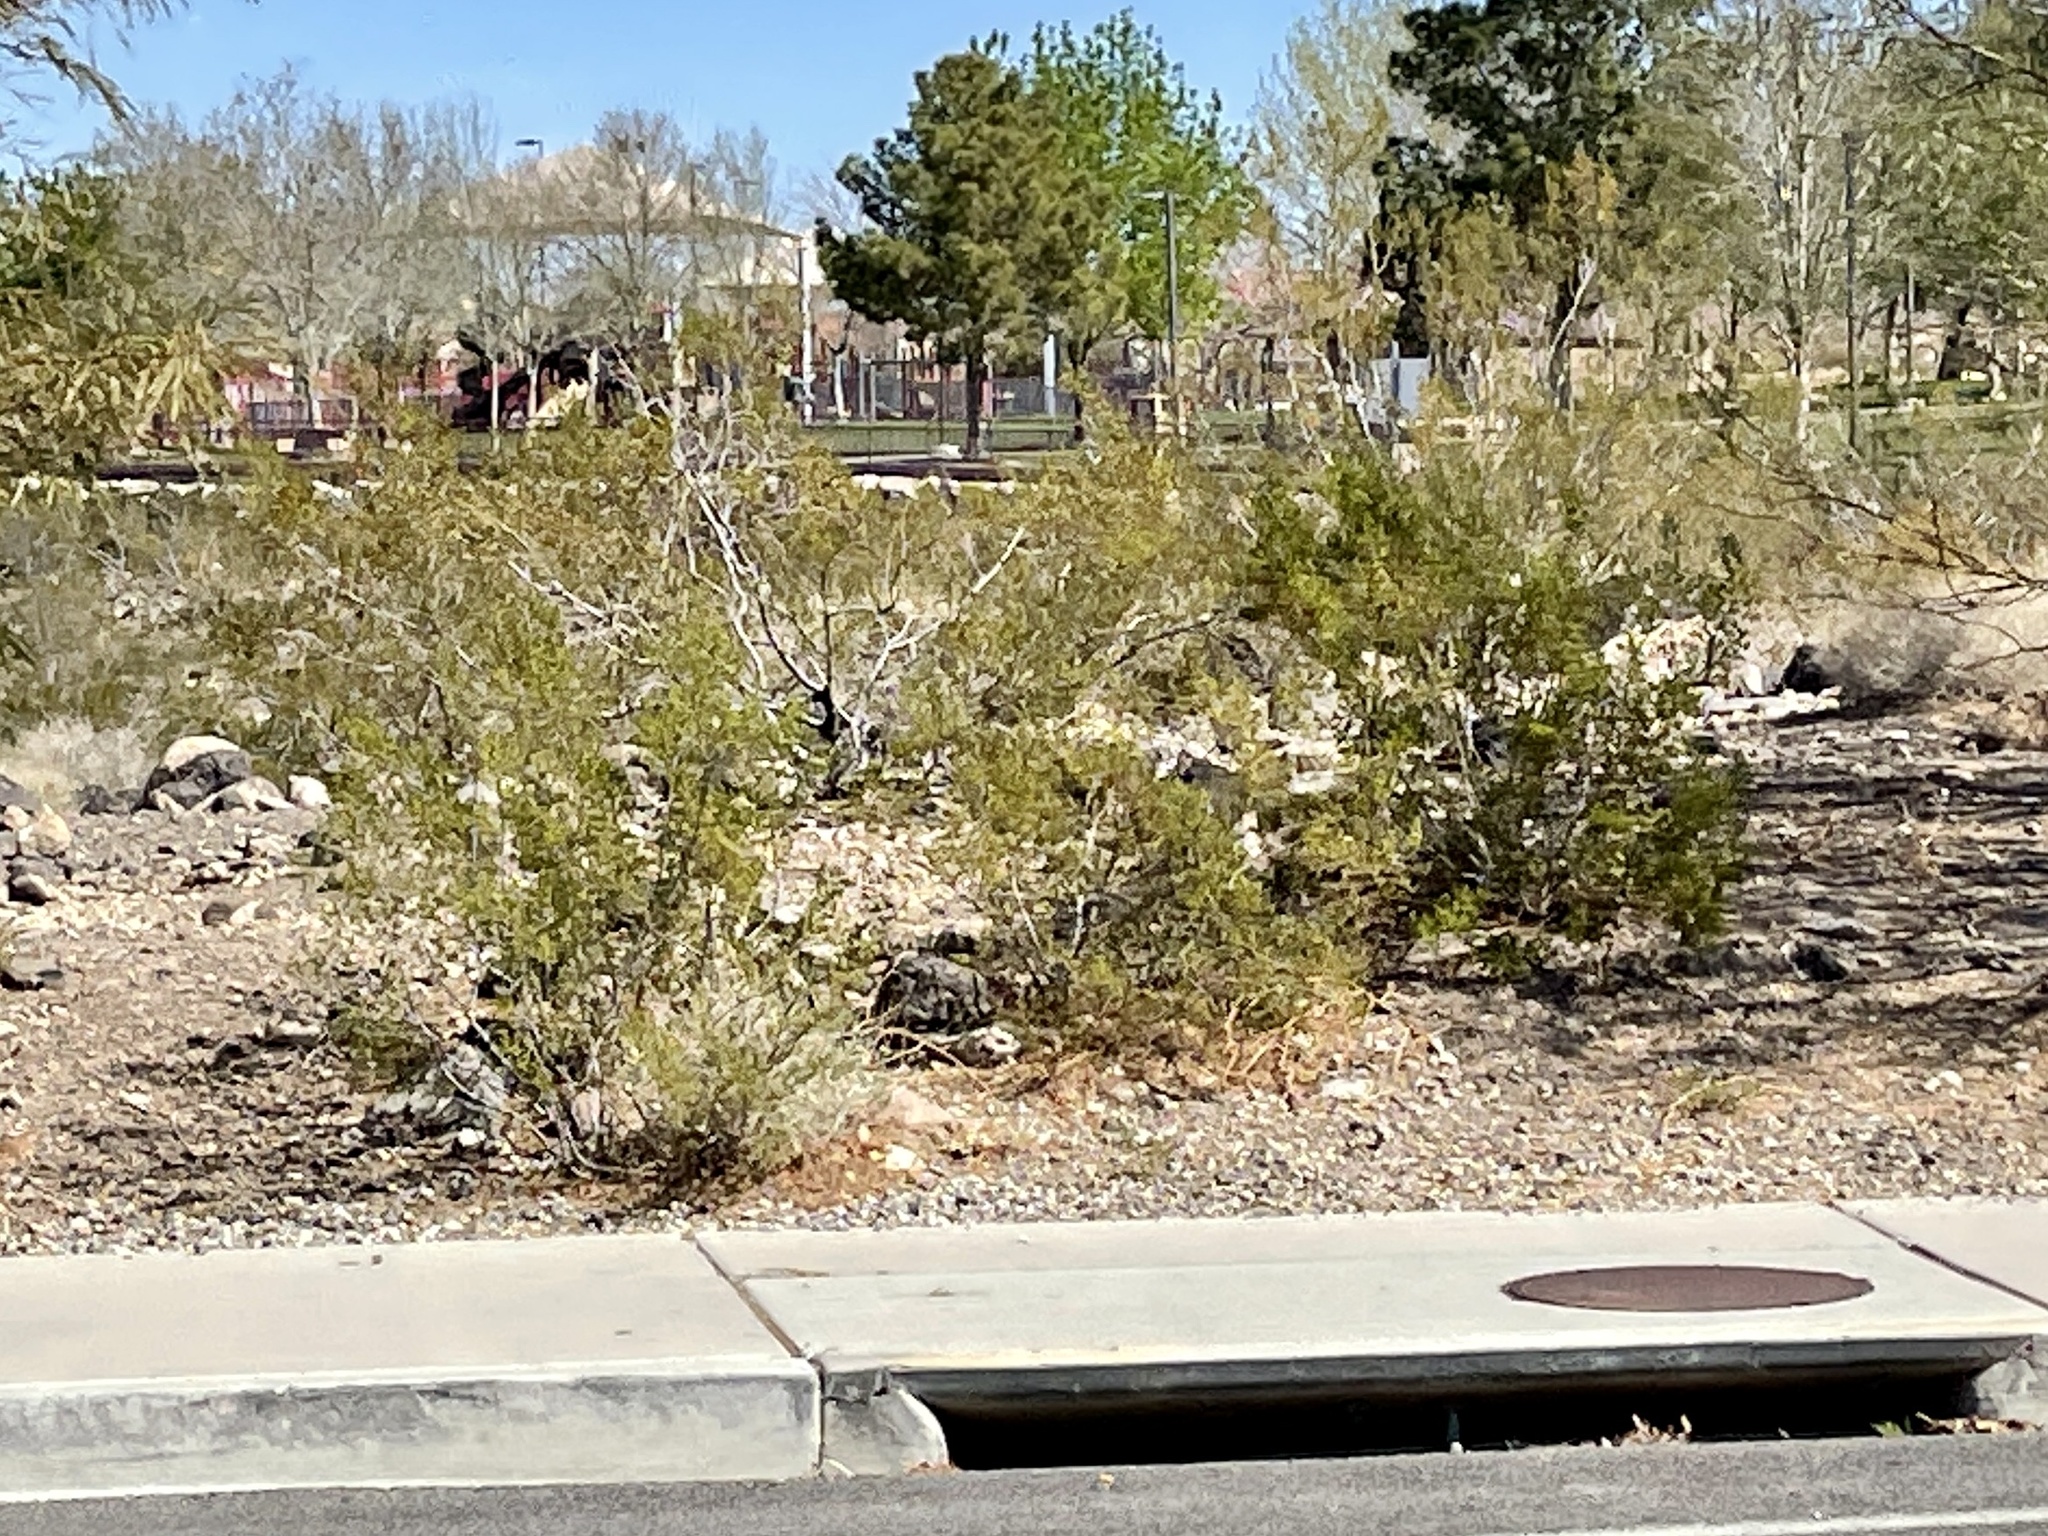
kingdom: Plantae
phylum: Tracheophyta
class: Magnoliopsida
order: Zygophyllales
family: Zygophyllaceae
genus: Larrea
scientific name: Larrea tridentata
